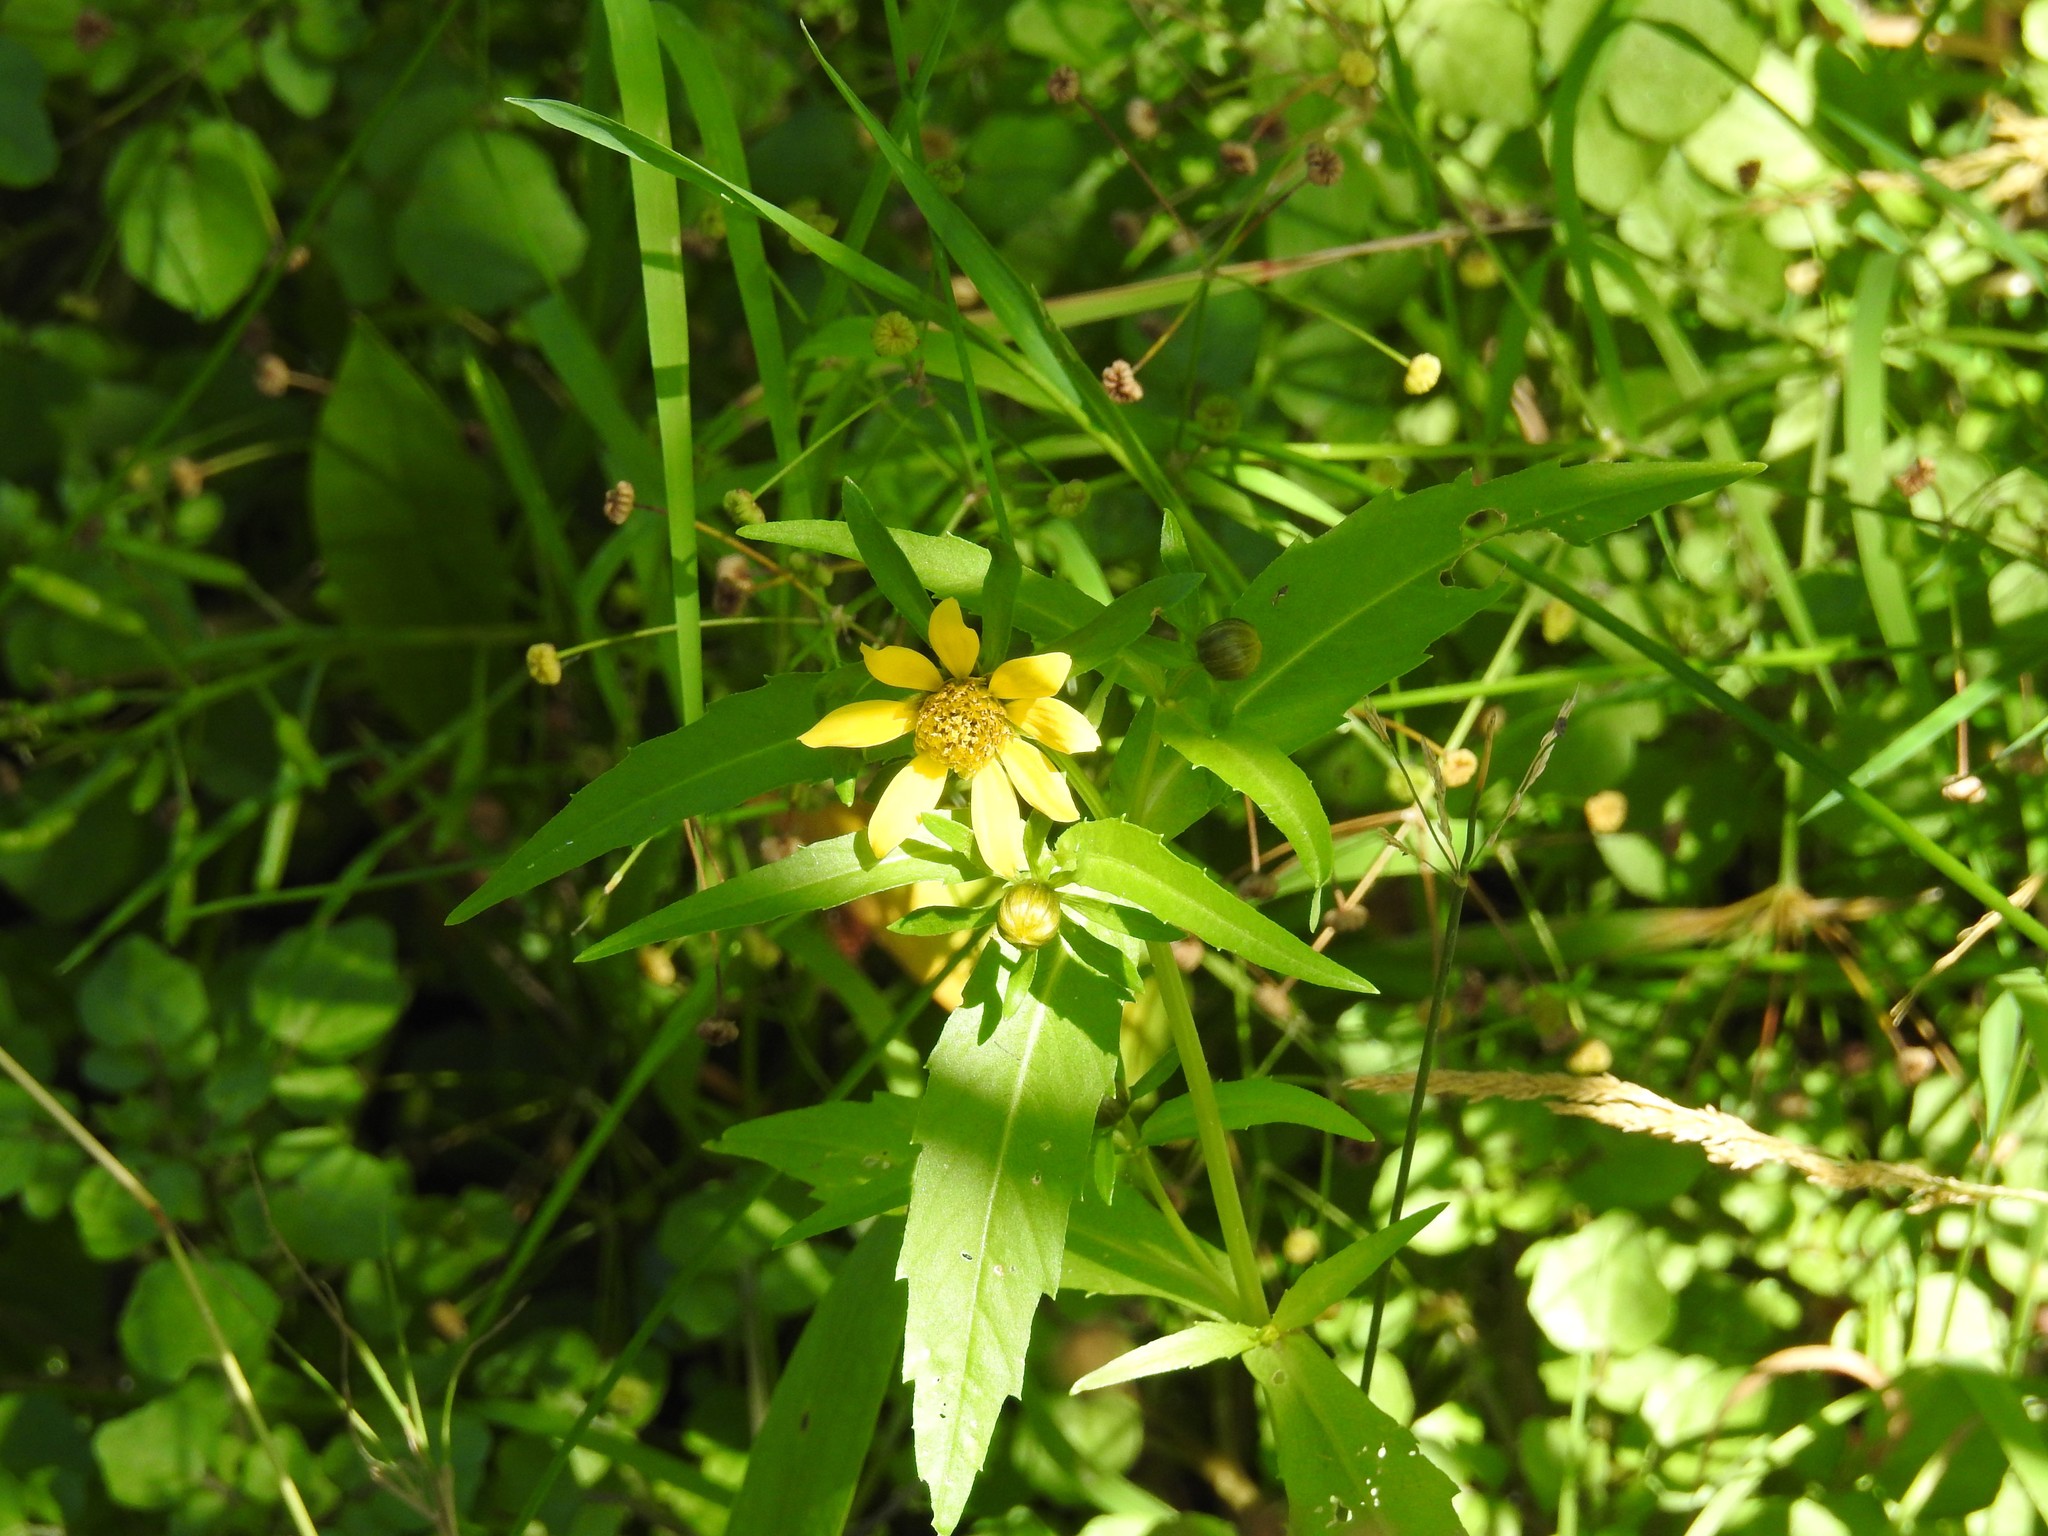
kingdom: Plantae
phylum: Tracheophyta
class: Magnoliopsida
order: Asterales
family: Asteraceae
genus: Bidens
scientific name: Bidens cernua
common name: Nodding bur-marigold
